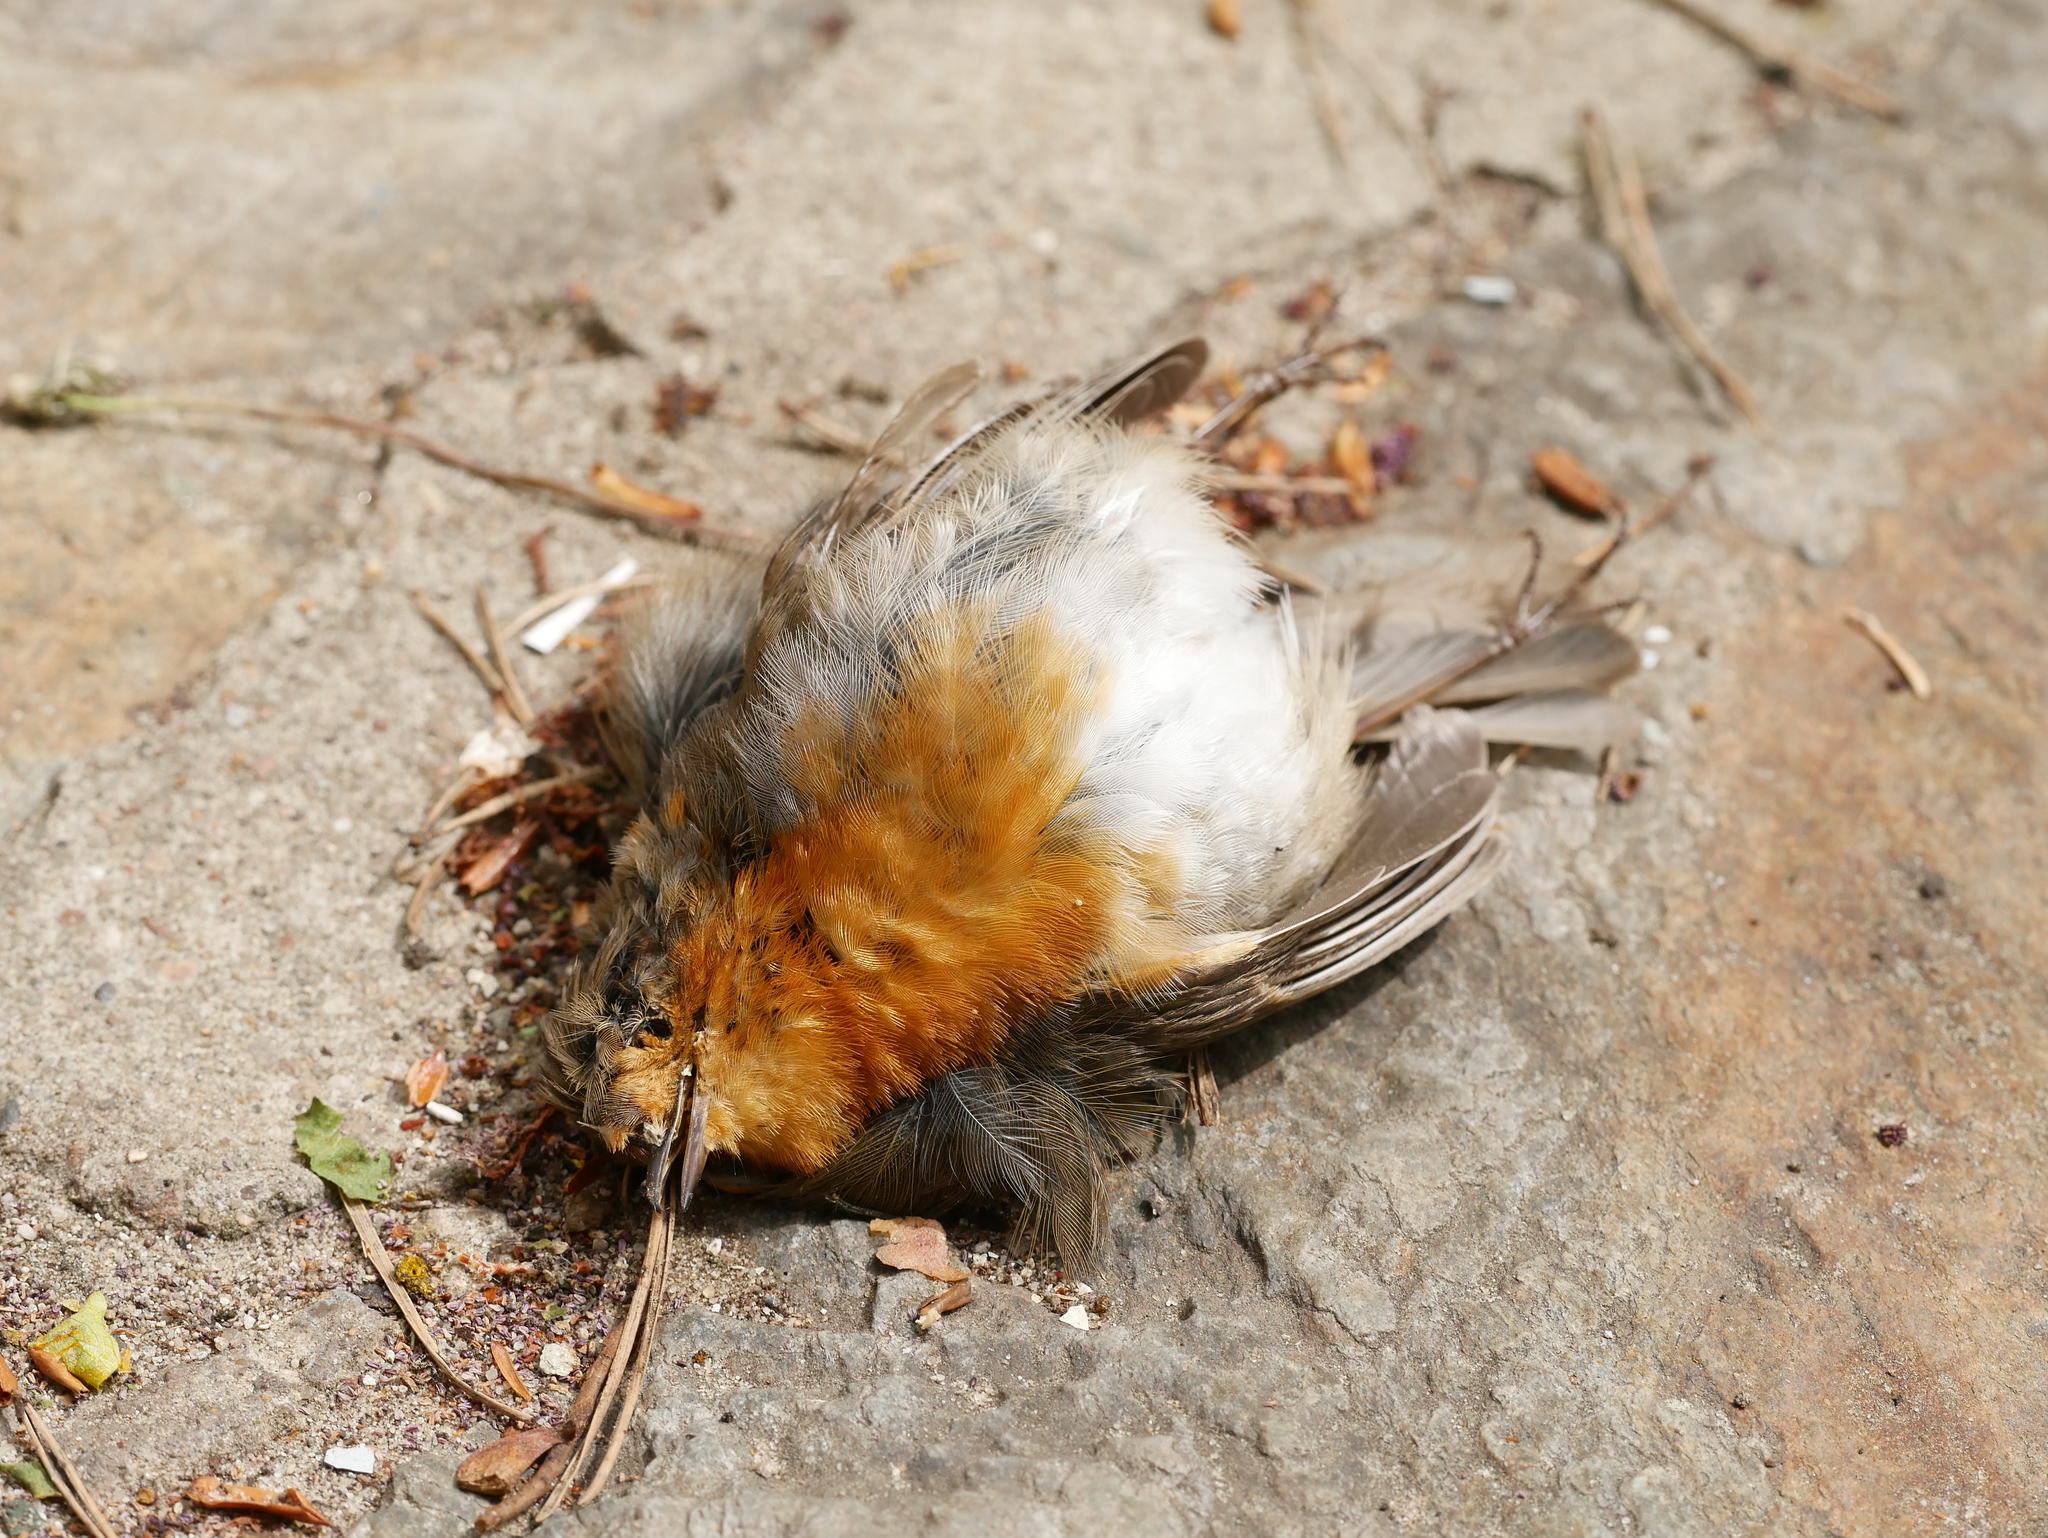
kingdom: Animalia
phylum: Chordata
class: Aves
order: Passeriformes
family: Muscicapidae
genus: Erithacus
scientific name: Erithacus rubecula
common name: European robin
